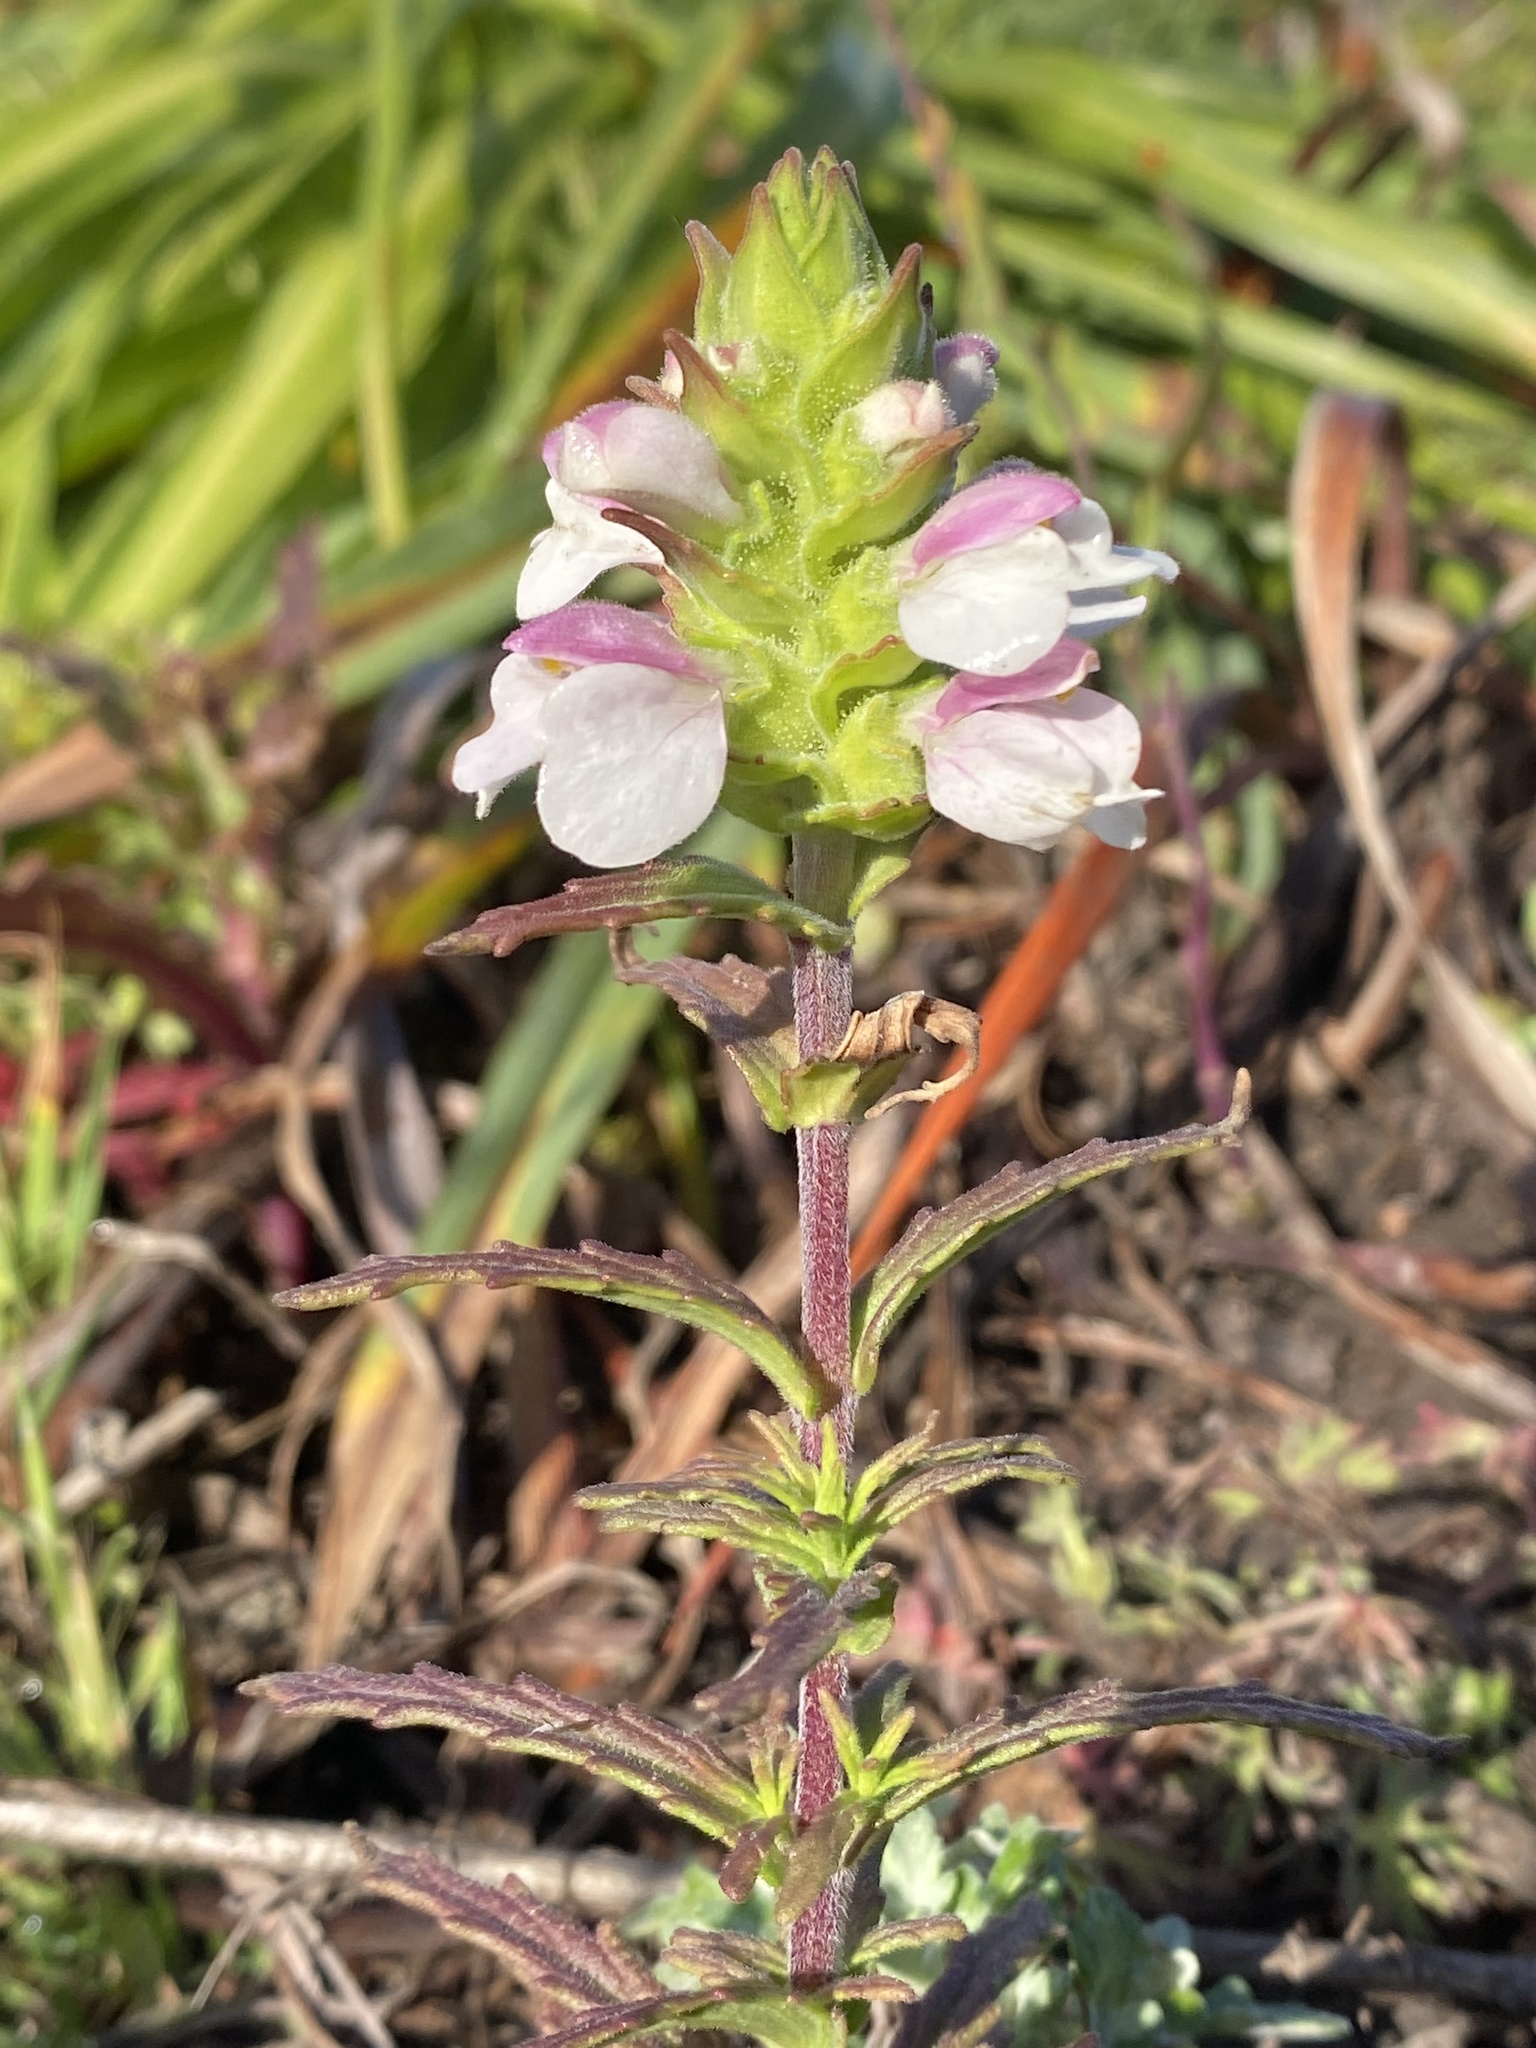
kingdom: Plantae
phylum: Tracheophyta
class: Magnoliopsida
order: Lamiales
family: Orobanchaceae
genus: Bellardia
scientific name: Bellardia trixago
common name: Mediterranean lineseed
